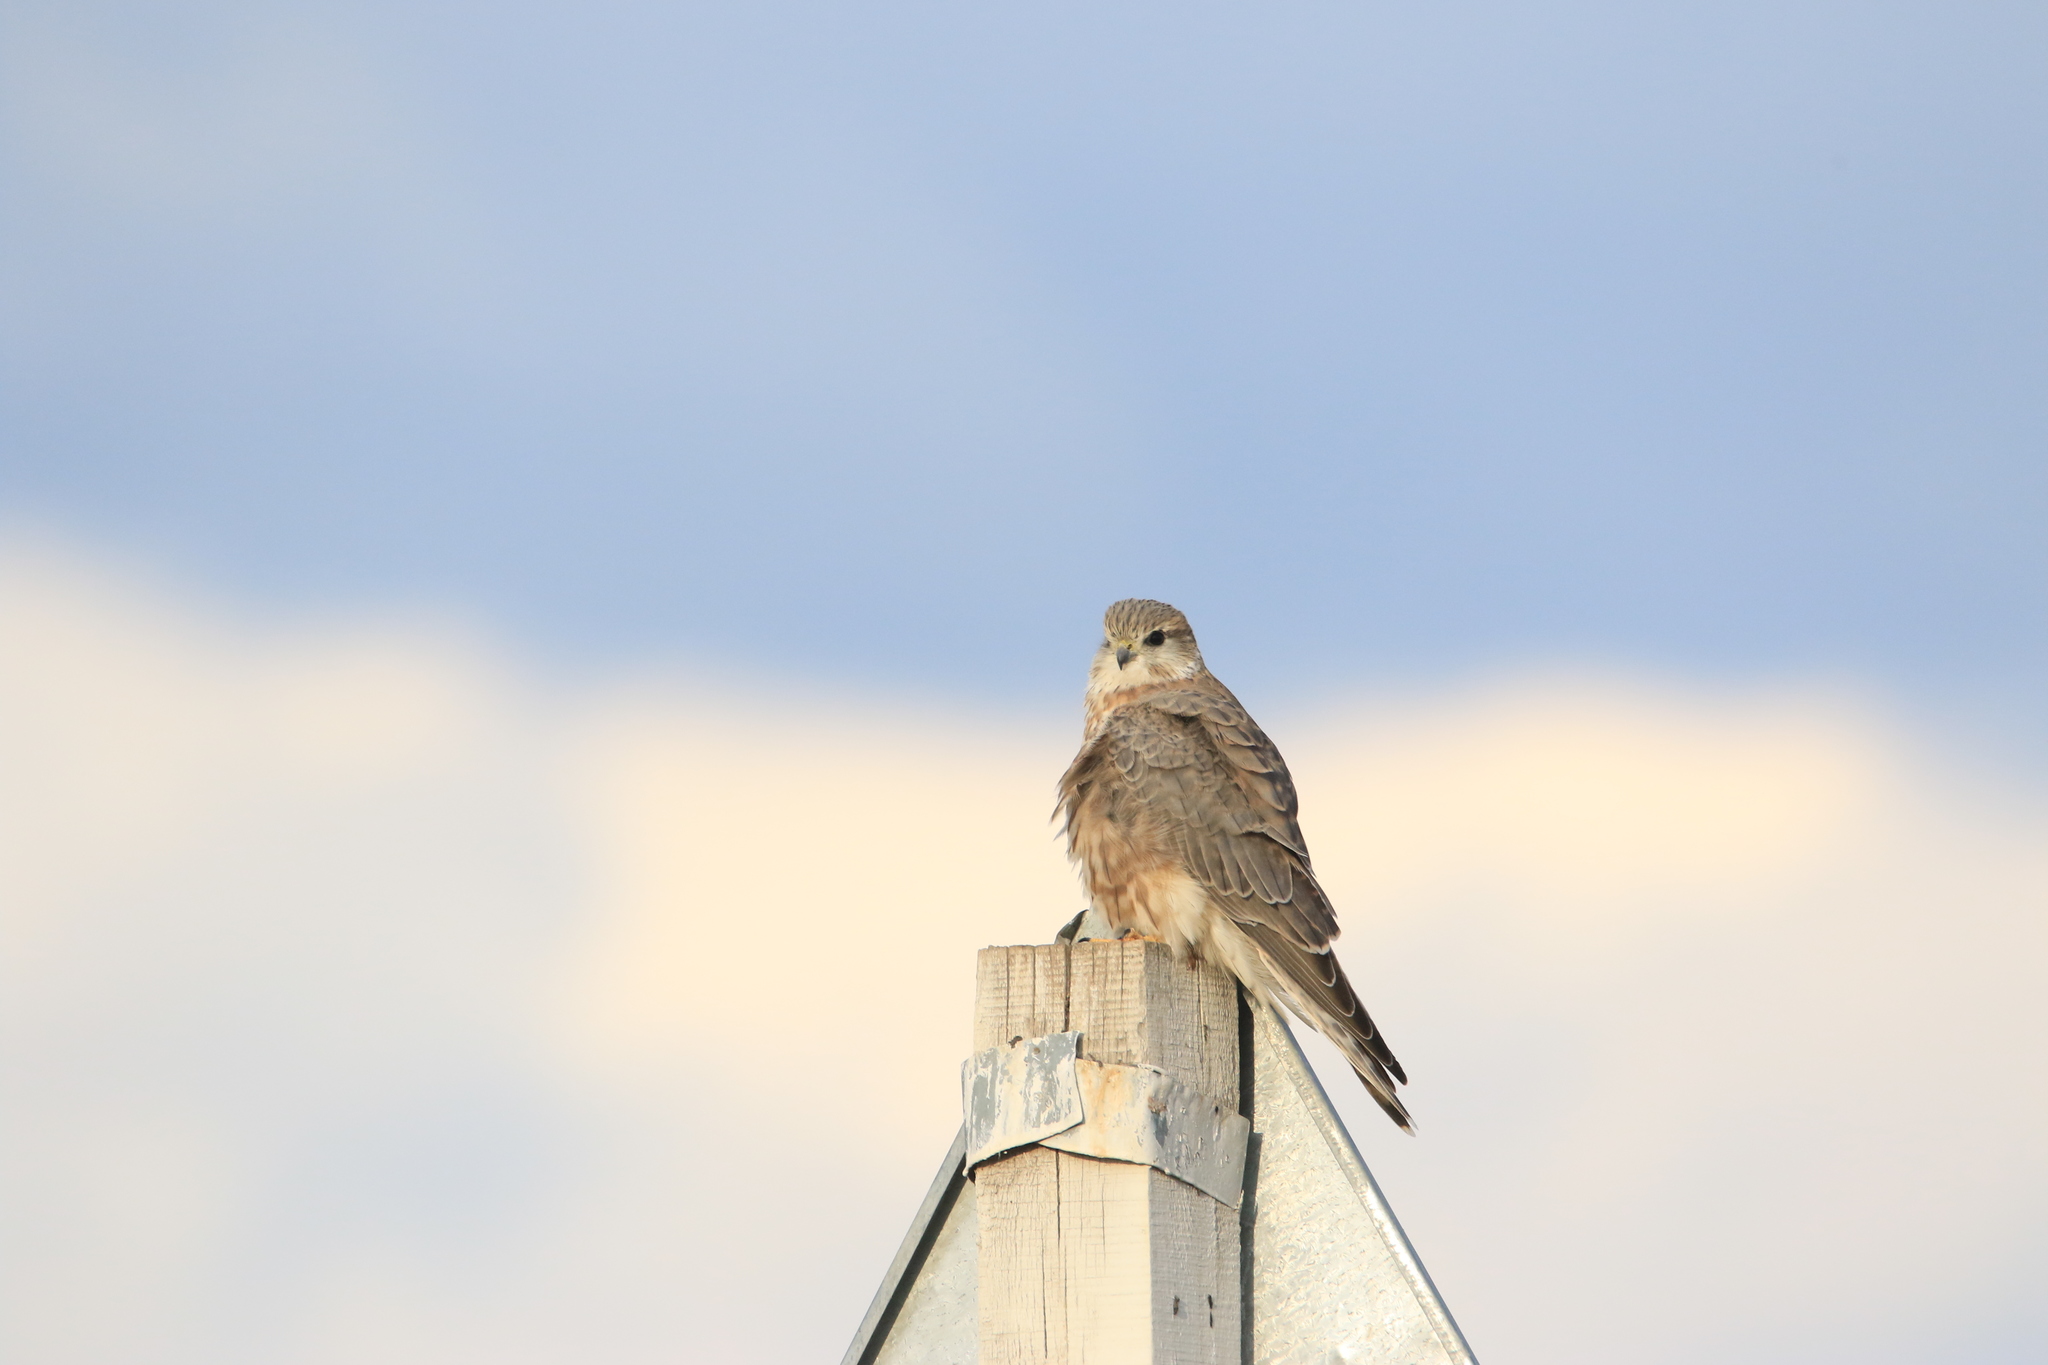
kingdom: Animalia
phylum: Chordata
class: Aves
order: Falconiformes
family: Falconidae
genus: Falco
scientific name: Falco columbarius
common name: Merlin
